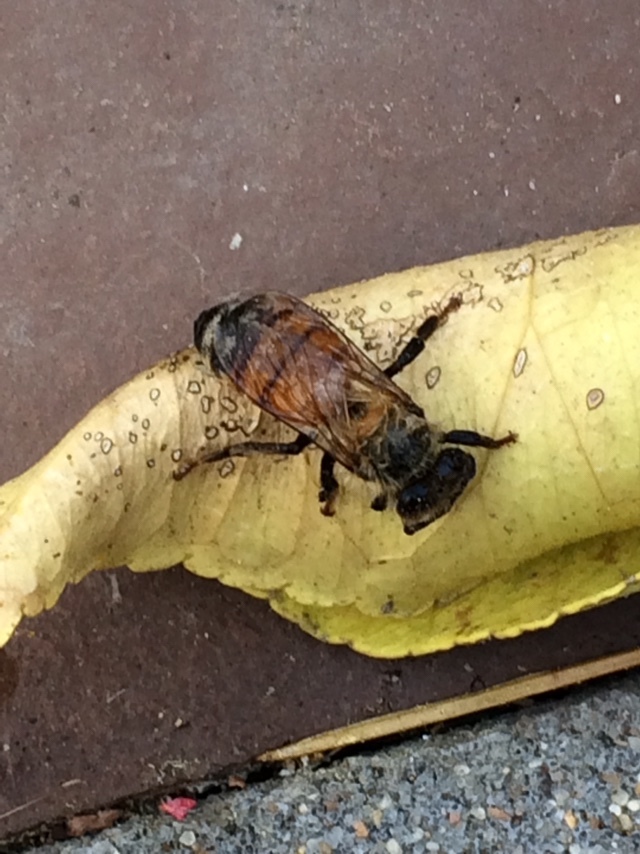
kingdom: Animalia
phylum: Arthropoda
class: Insecta
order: Hymenoptera
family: Apidae
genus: Apis
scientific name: Apis mellifera
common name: Honey bee
